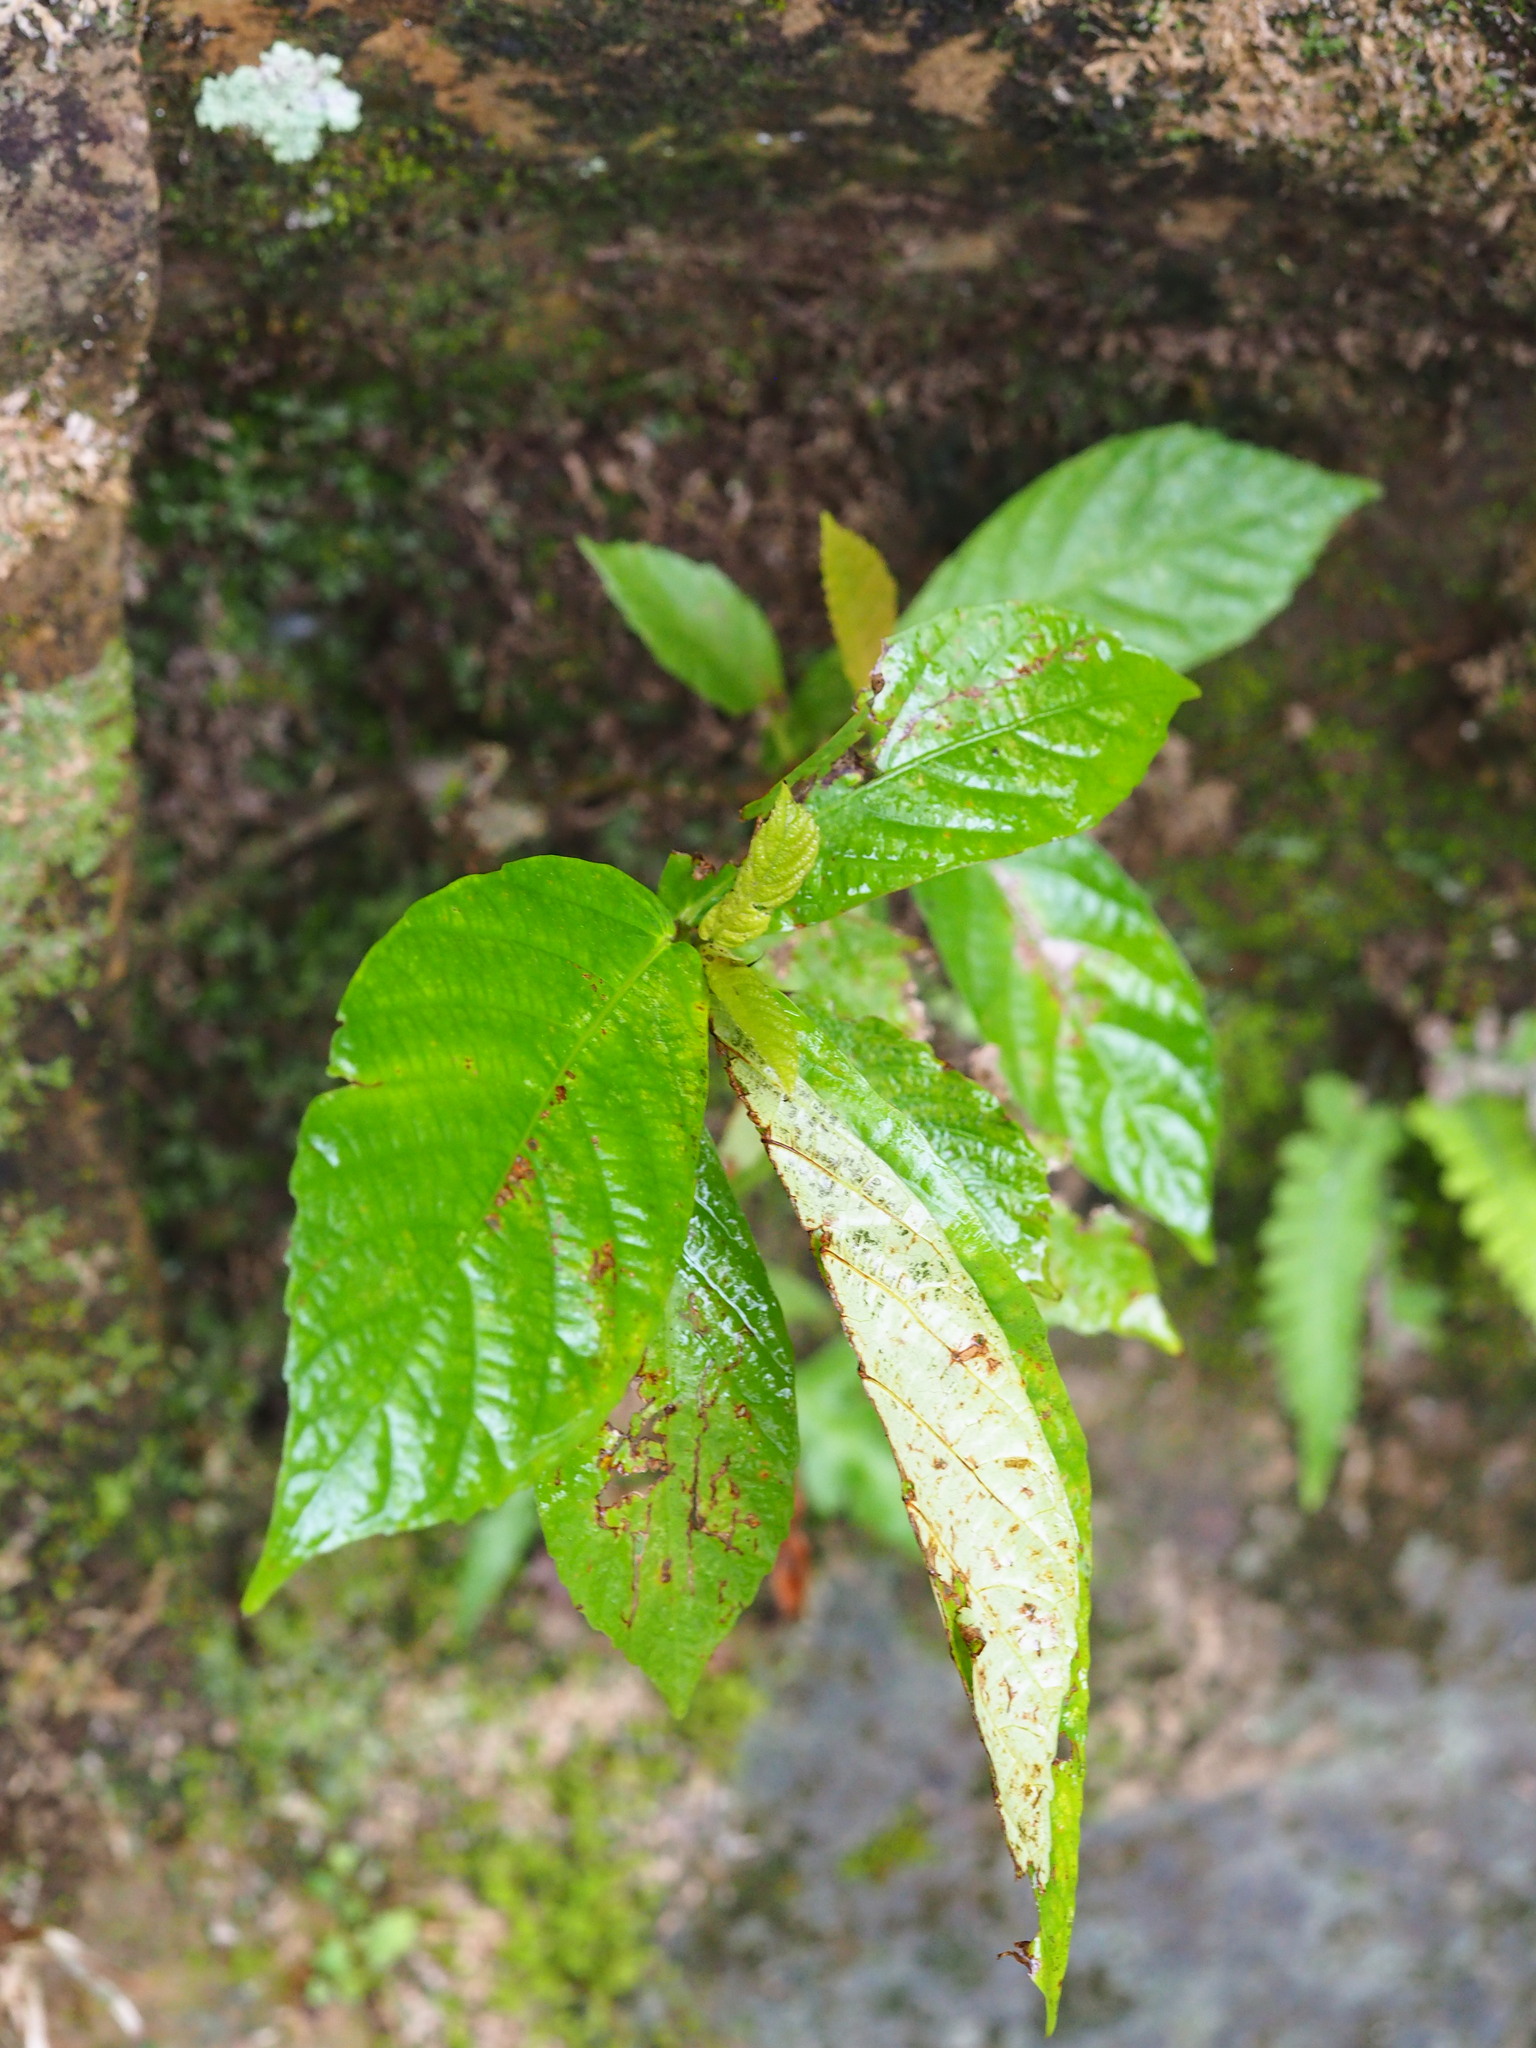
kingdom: Plantae
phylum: Tracheophyta
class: Magnoliopsida
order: Rosales
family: Moraceae
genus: Ficus
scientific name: Ficus benguetensis
